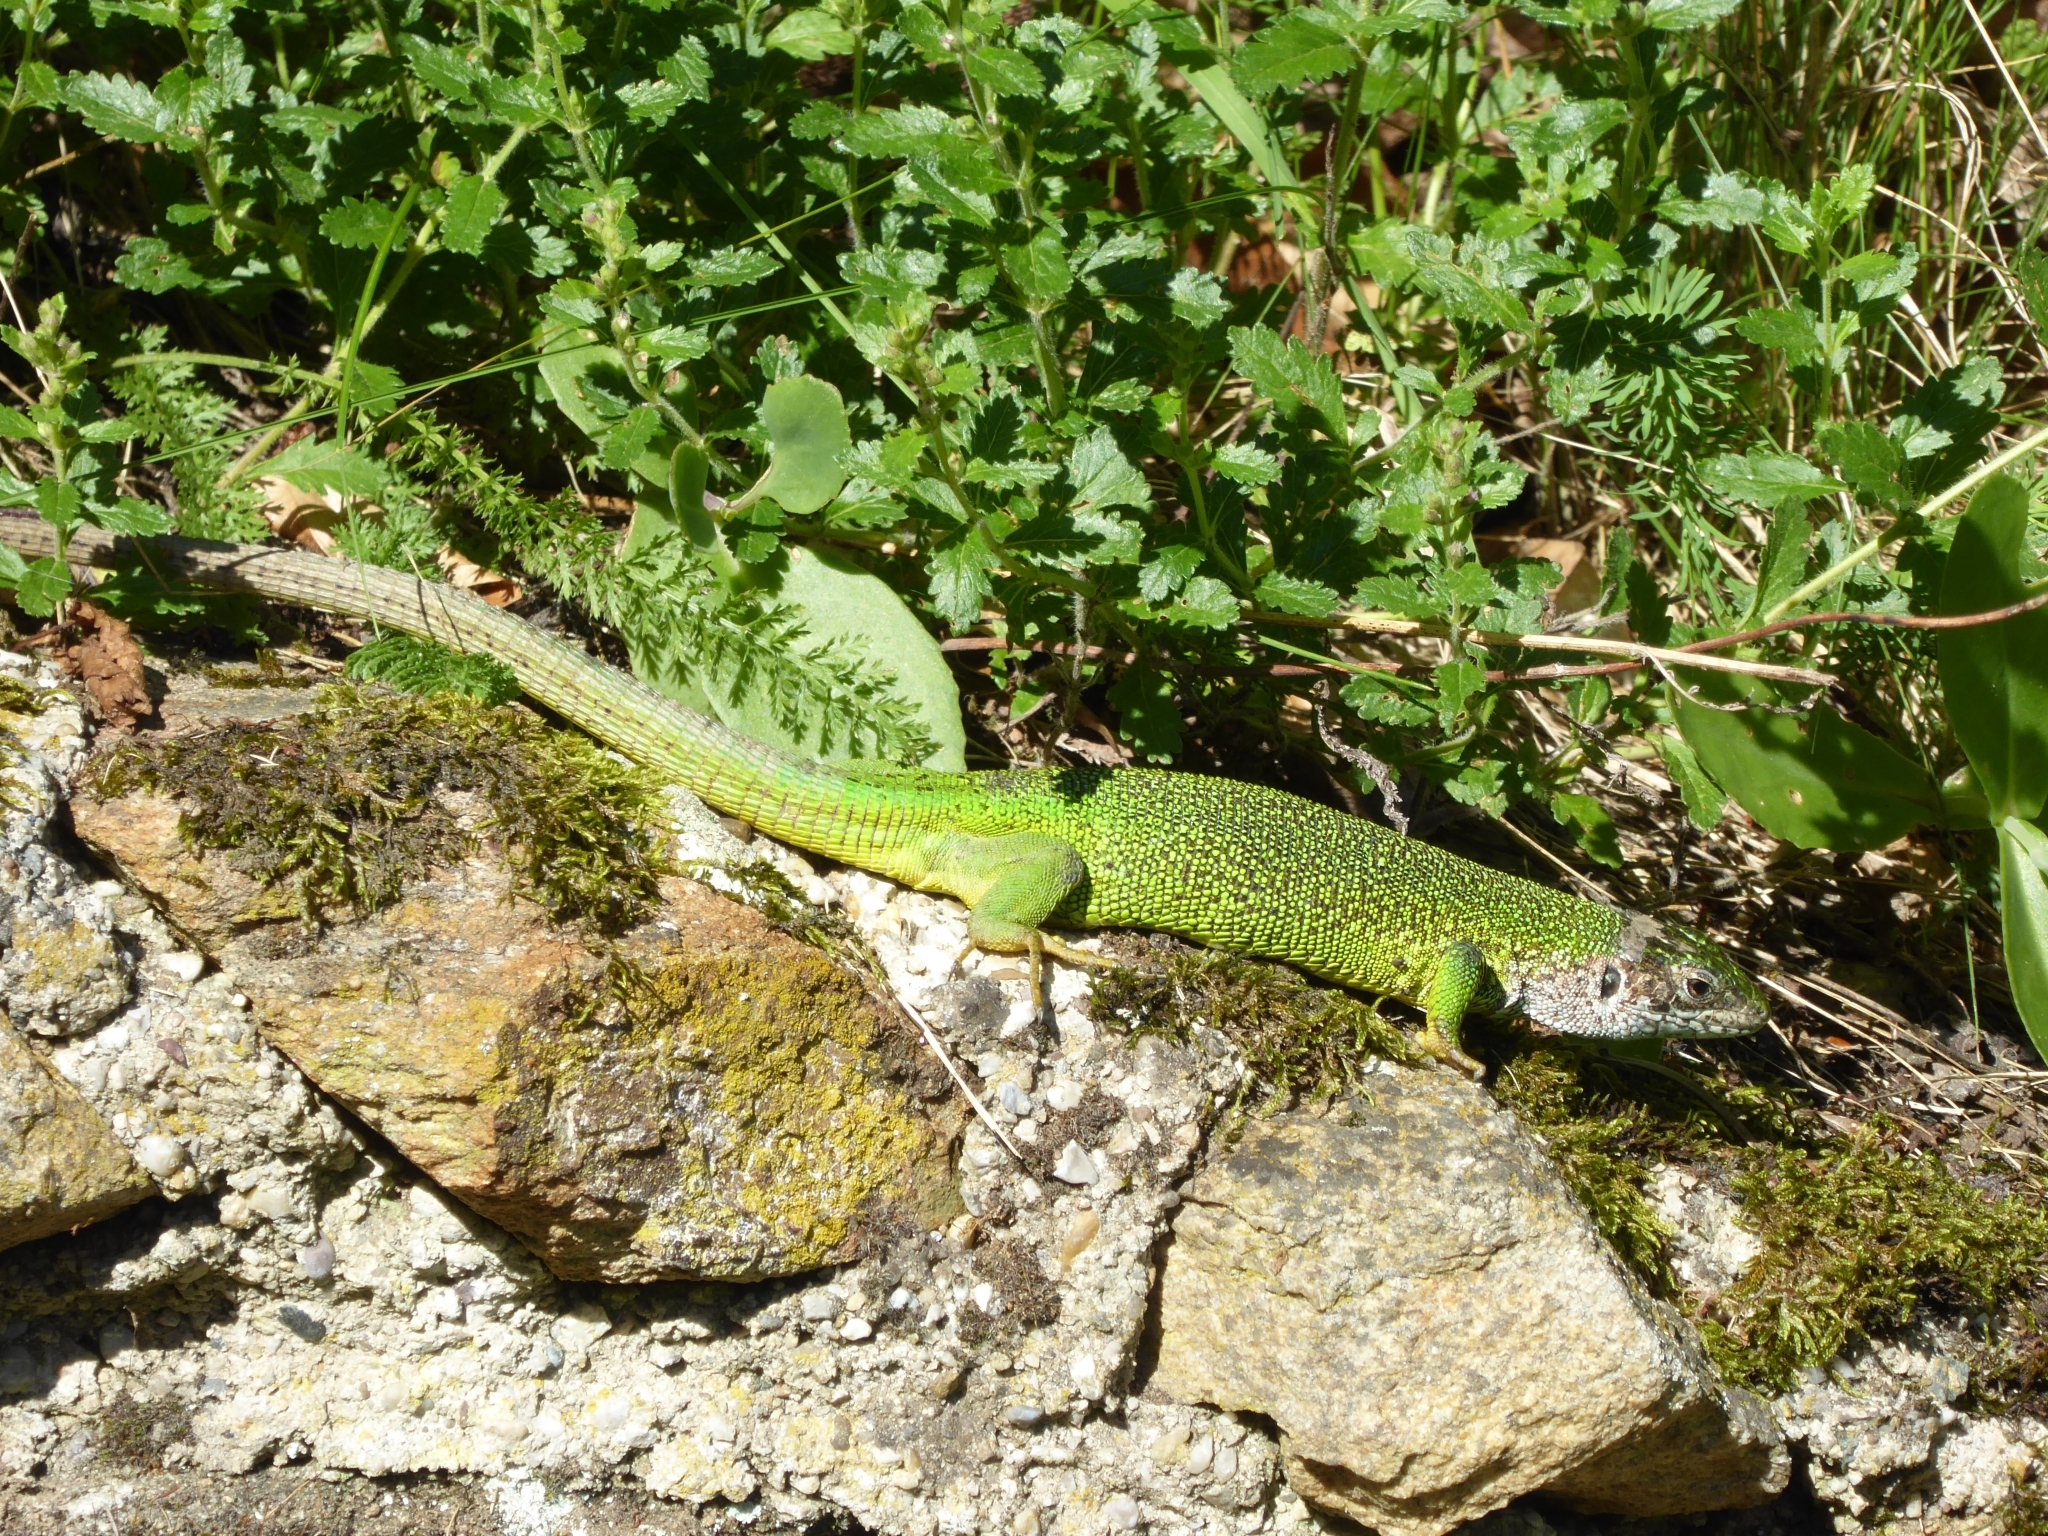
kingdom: Animalia
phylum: Chordata
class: Squamata
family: Lacertidae
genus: Lacerta
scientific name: Lacerta viridis
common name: European green lizard
